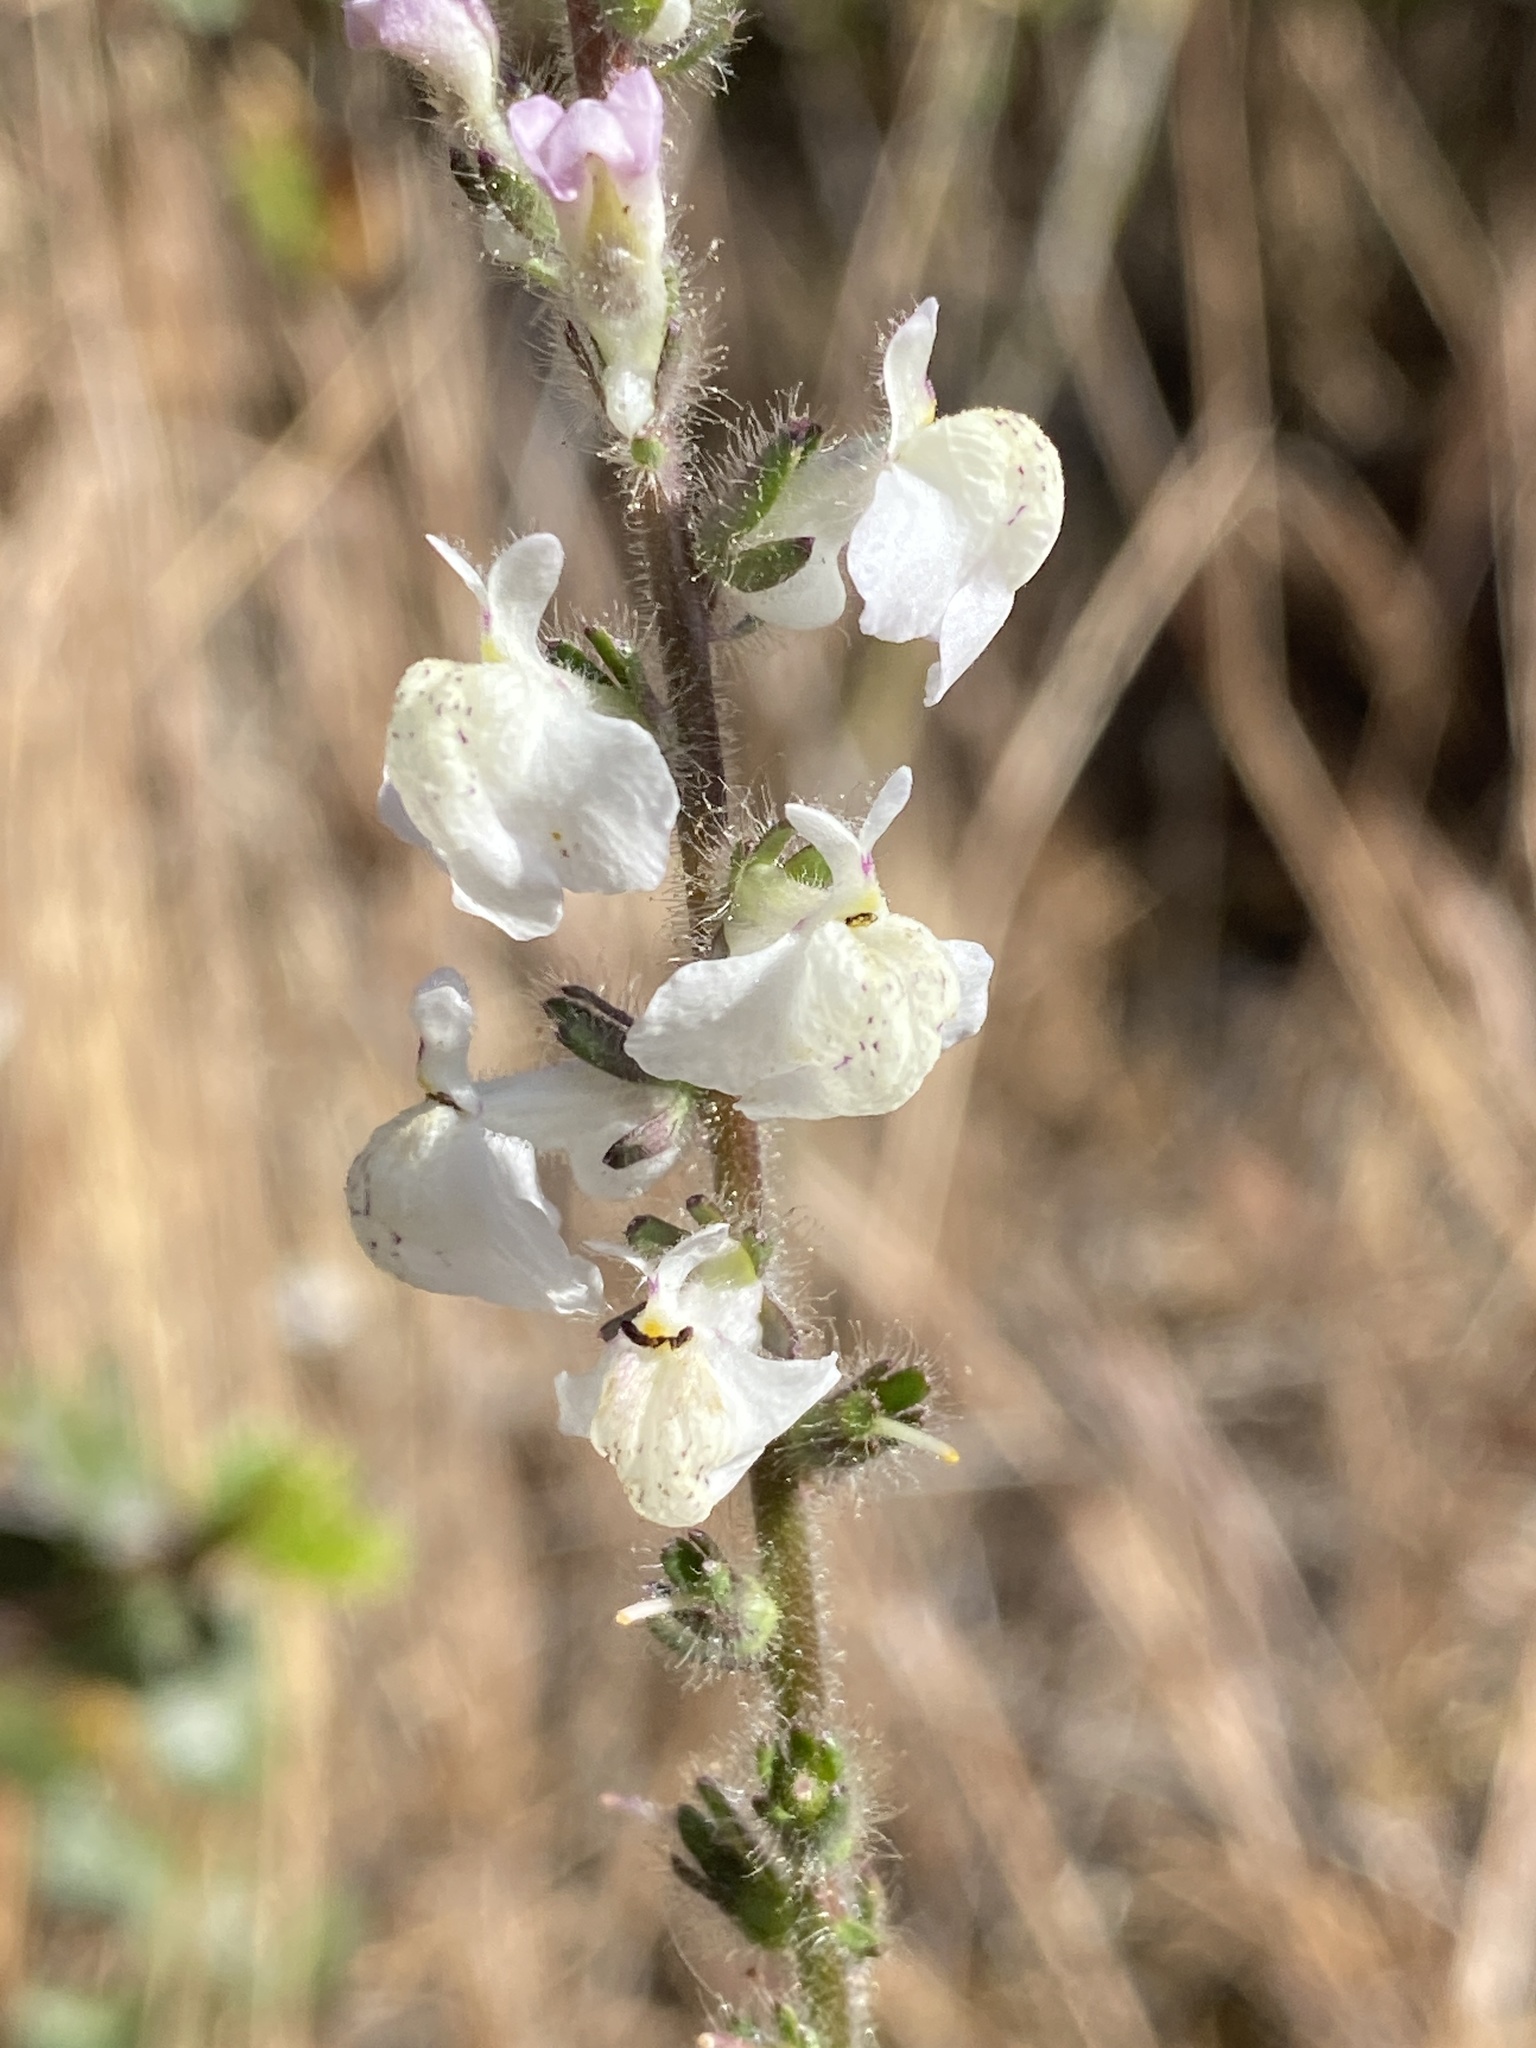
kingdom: Plantae
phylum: Tracheophyta
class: Magnoliopsida
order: Lamiales
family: Plantaginaceae
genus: Sairocarpus
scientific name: Sairocarpus coulterianus
